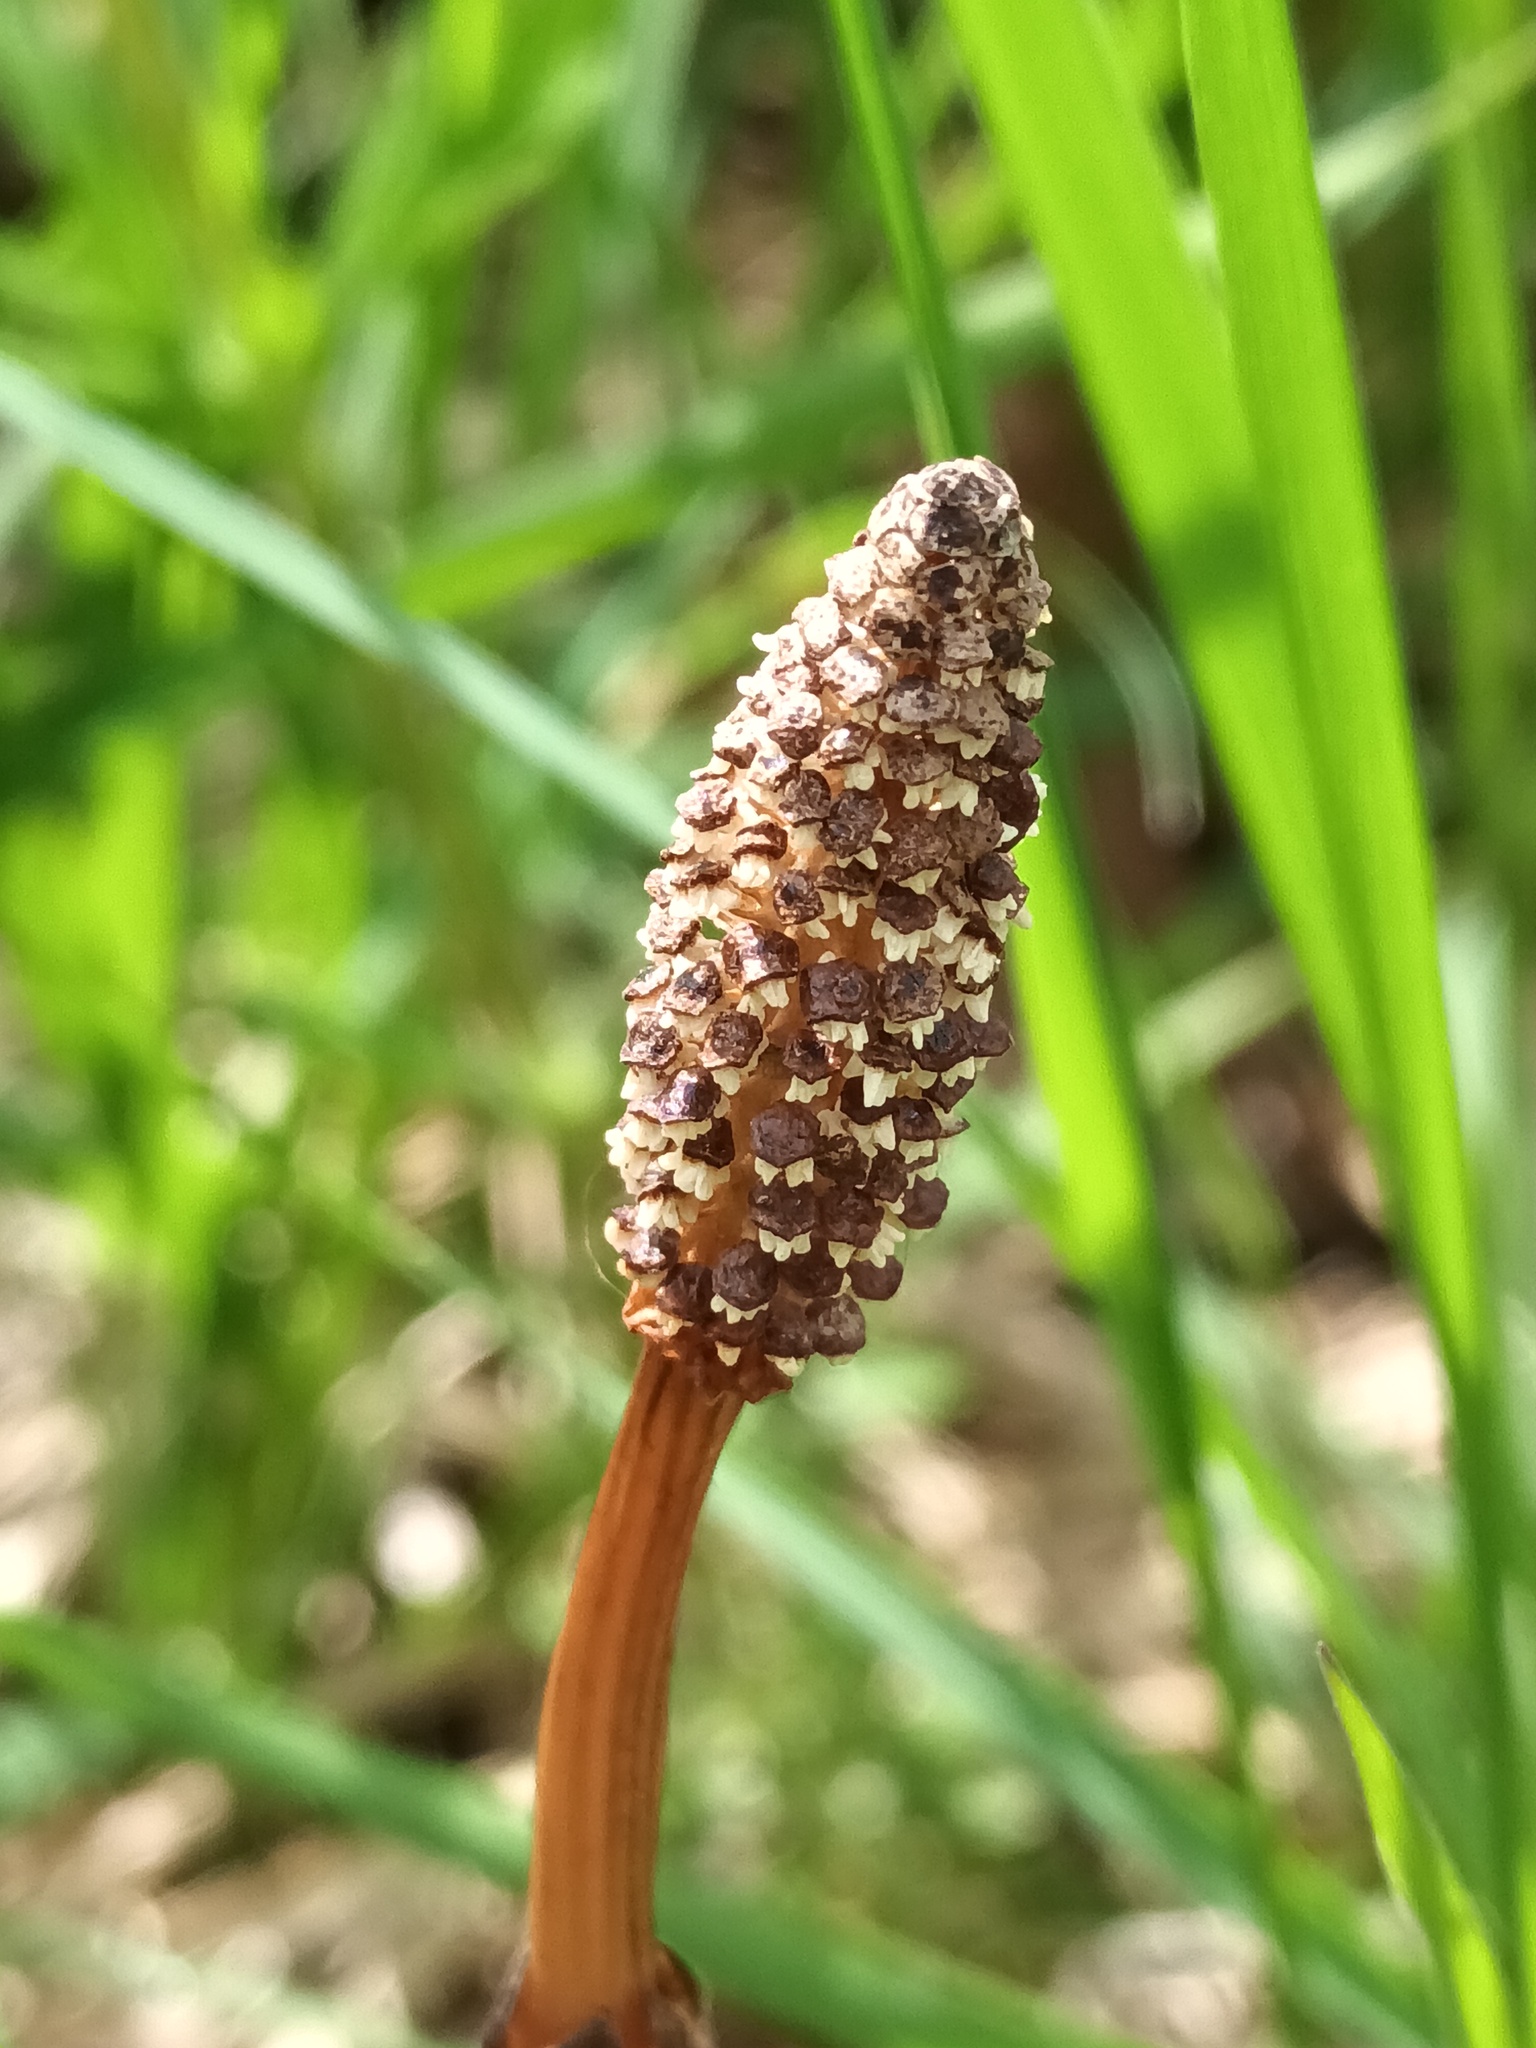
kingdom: Plantae
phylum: Tracheophyta
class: Polypodiopsida
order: Equisetales
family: Equisetaceae
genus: Equisetum
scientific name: Equisetum arvense
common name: Field horsetail
